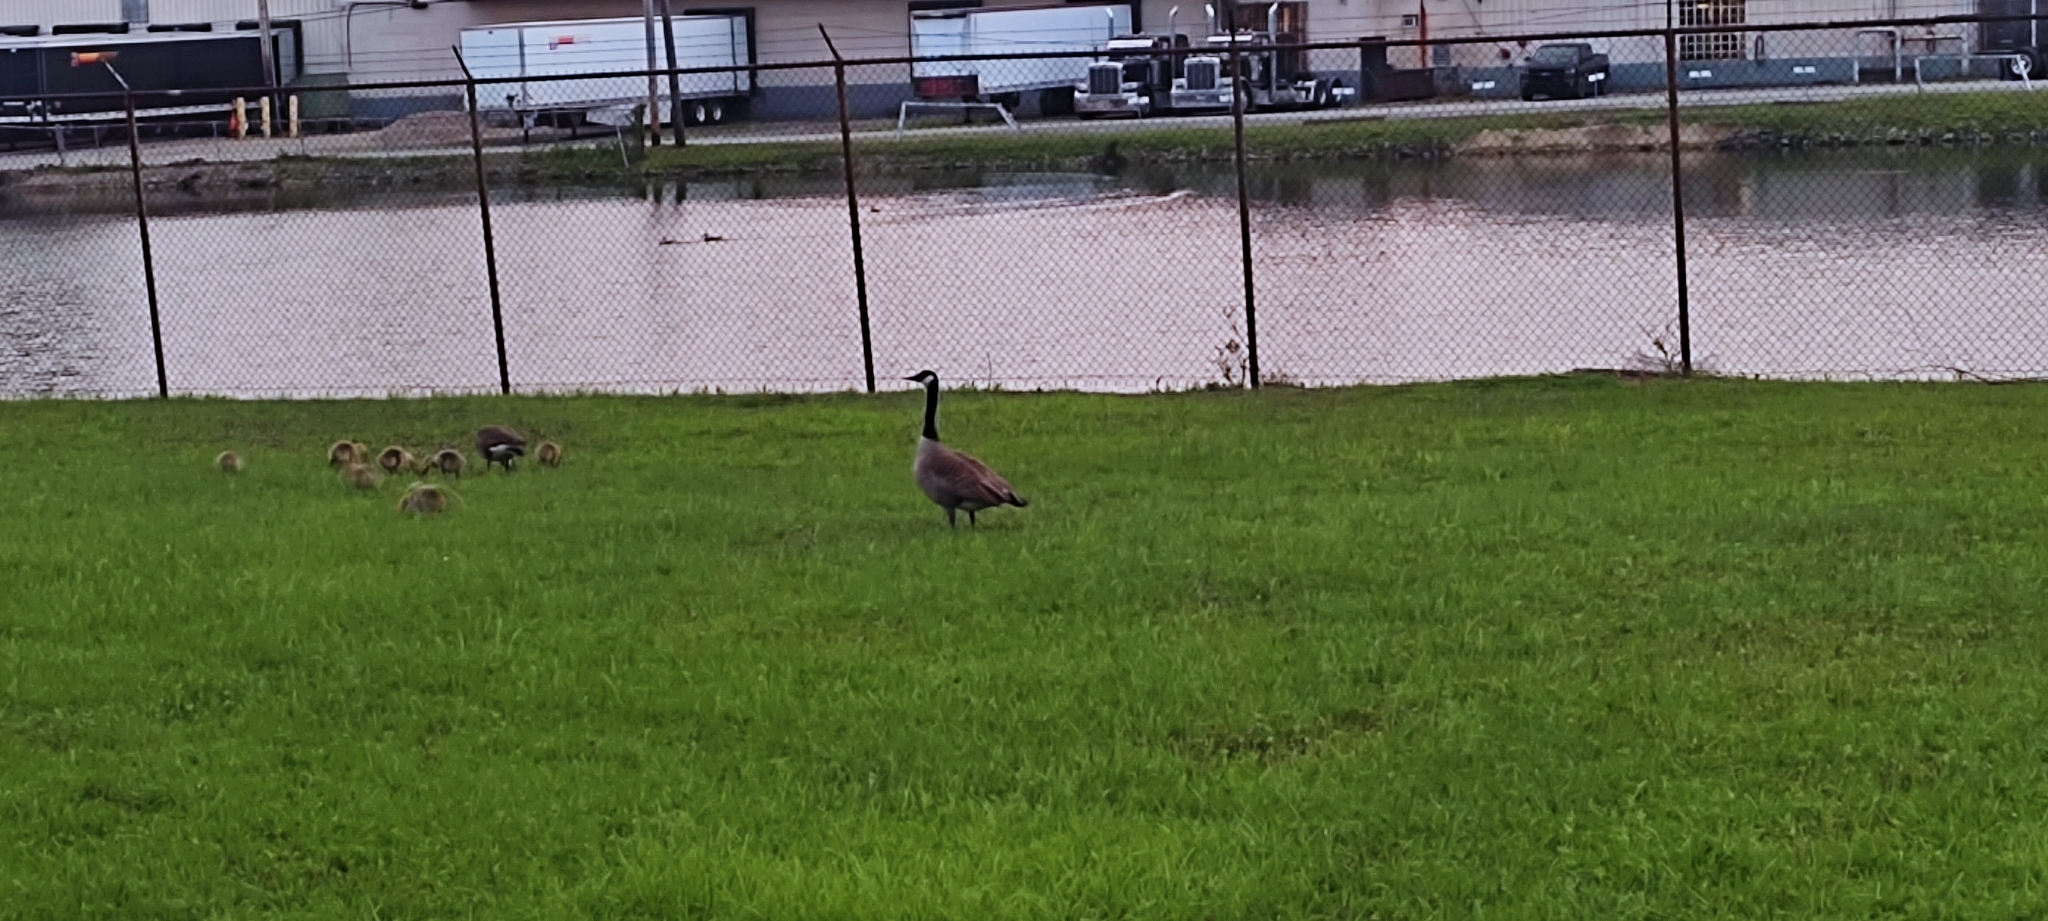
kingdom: Animalia
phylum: Chordata
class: Aves
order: Anseriformes
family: Anatidae
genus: Branta
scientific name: Branta canadensis
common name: Canada goose
